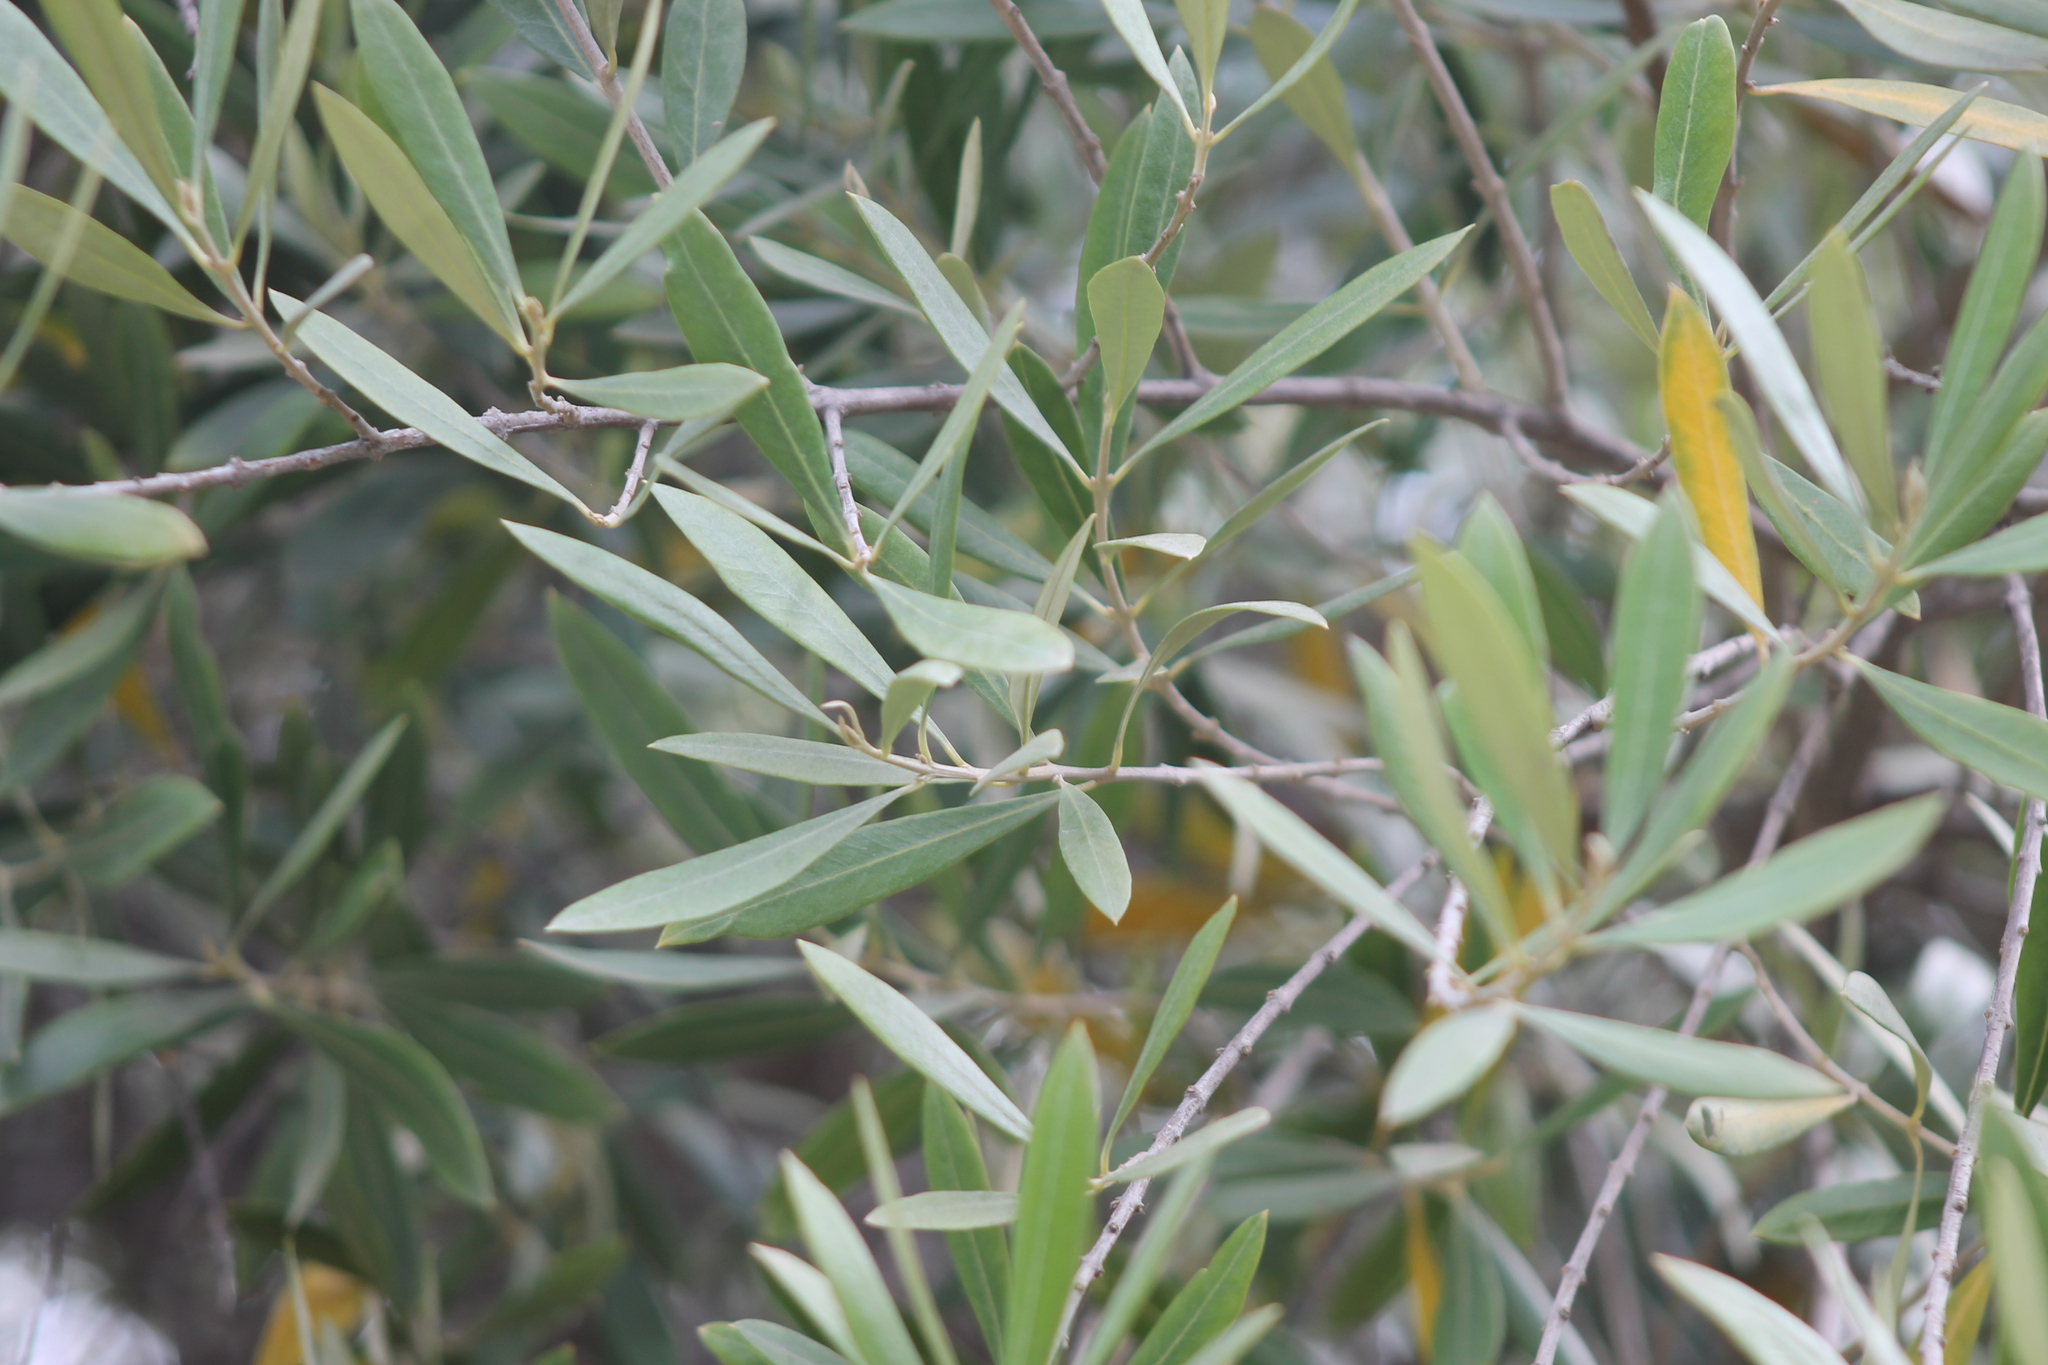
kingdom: Plantae
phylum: Tracheophyta
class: Magnoliopsida
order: Lamiales
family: Oleaceae
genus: Olea
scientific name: Olea europaea
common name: Olive
